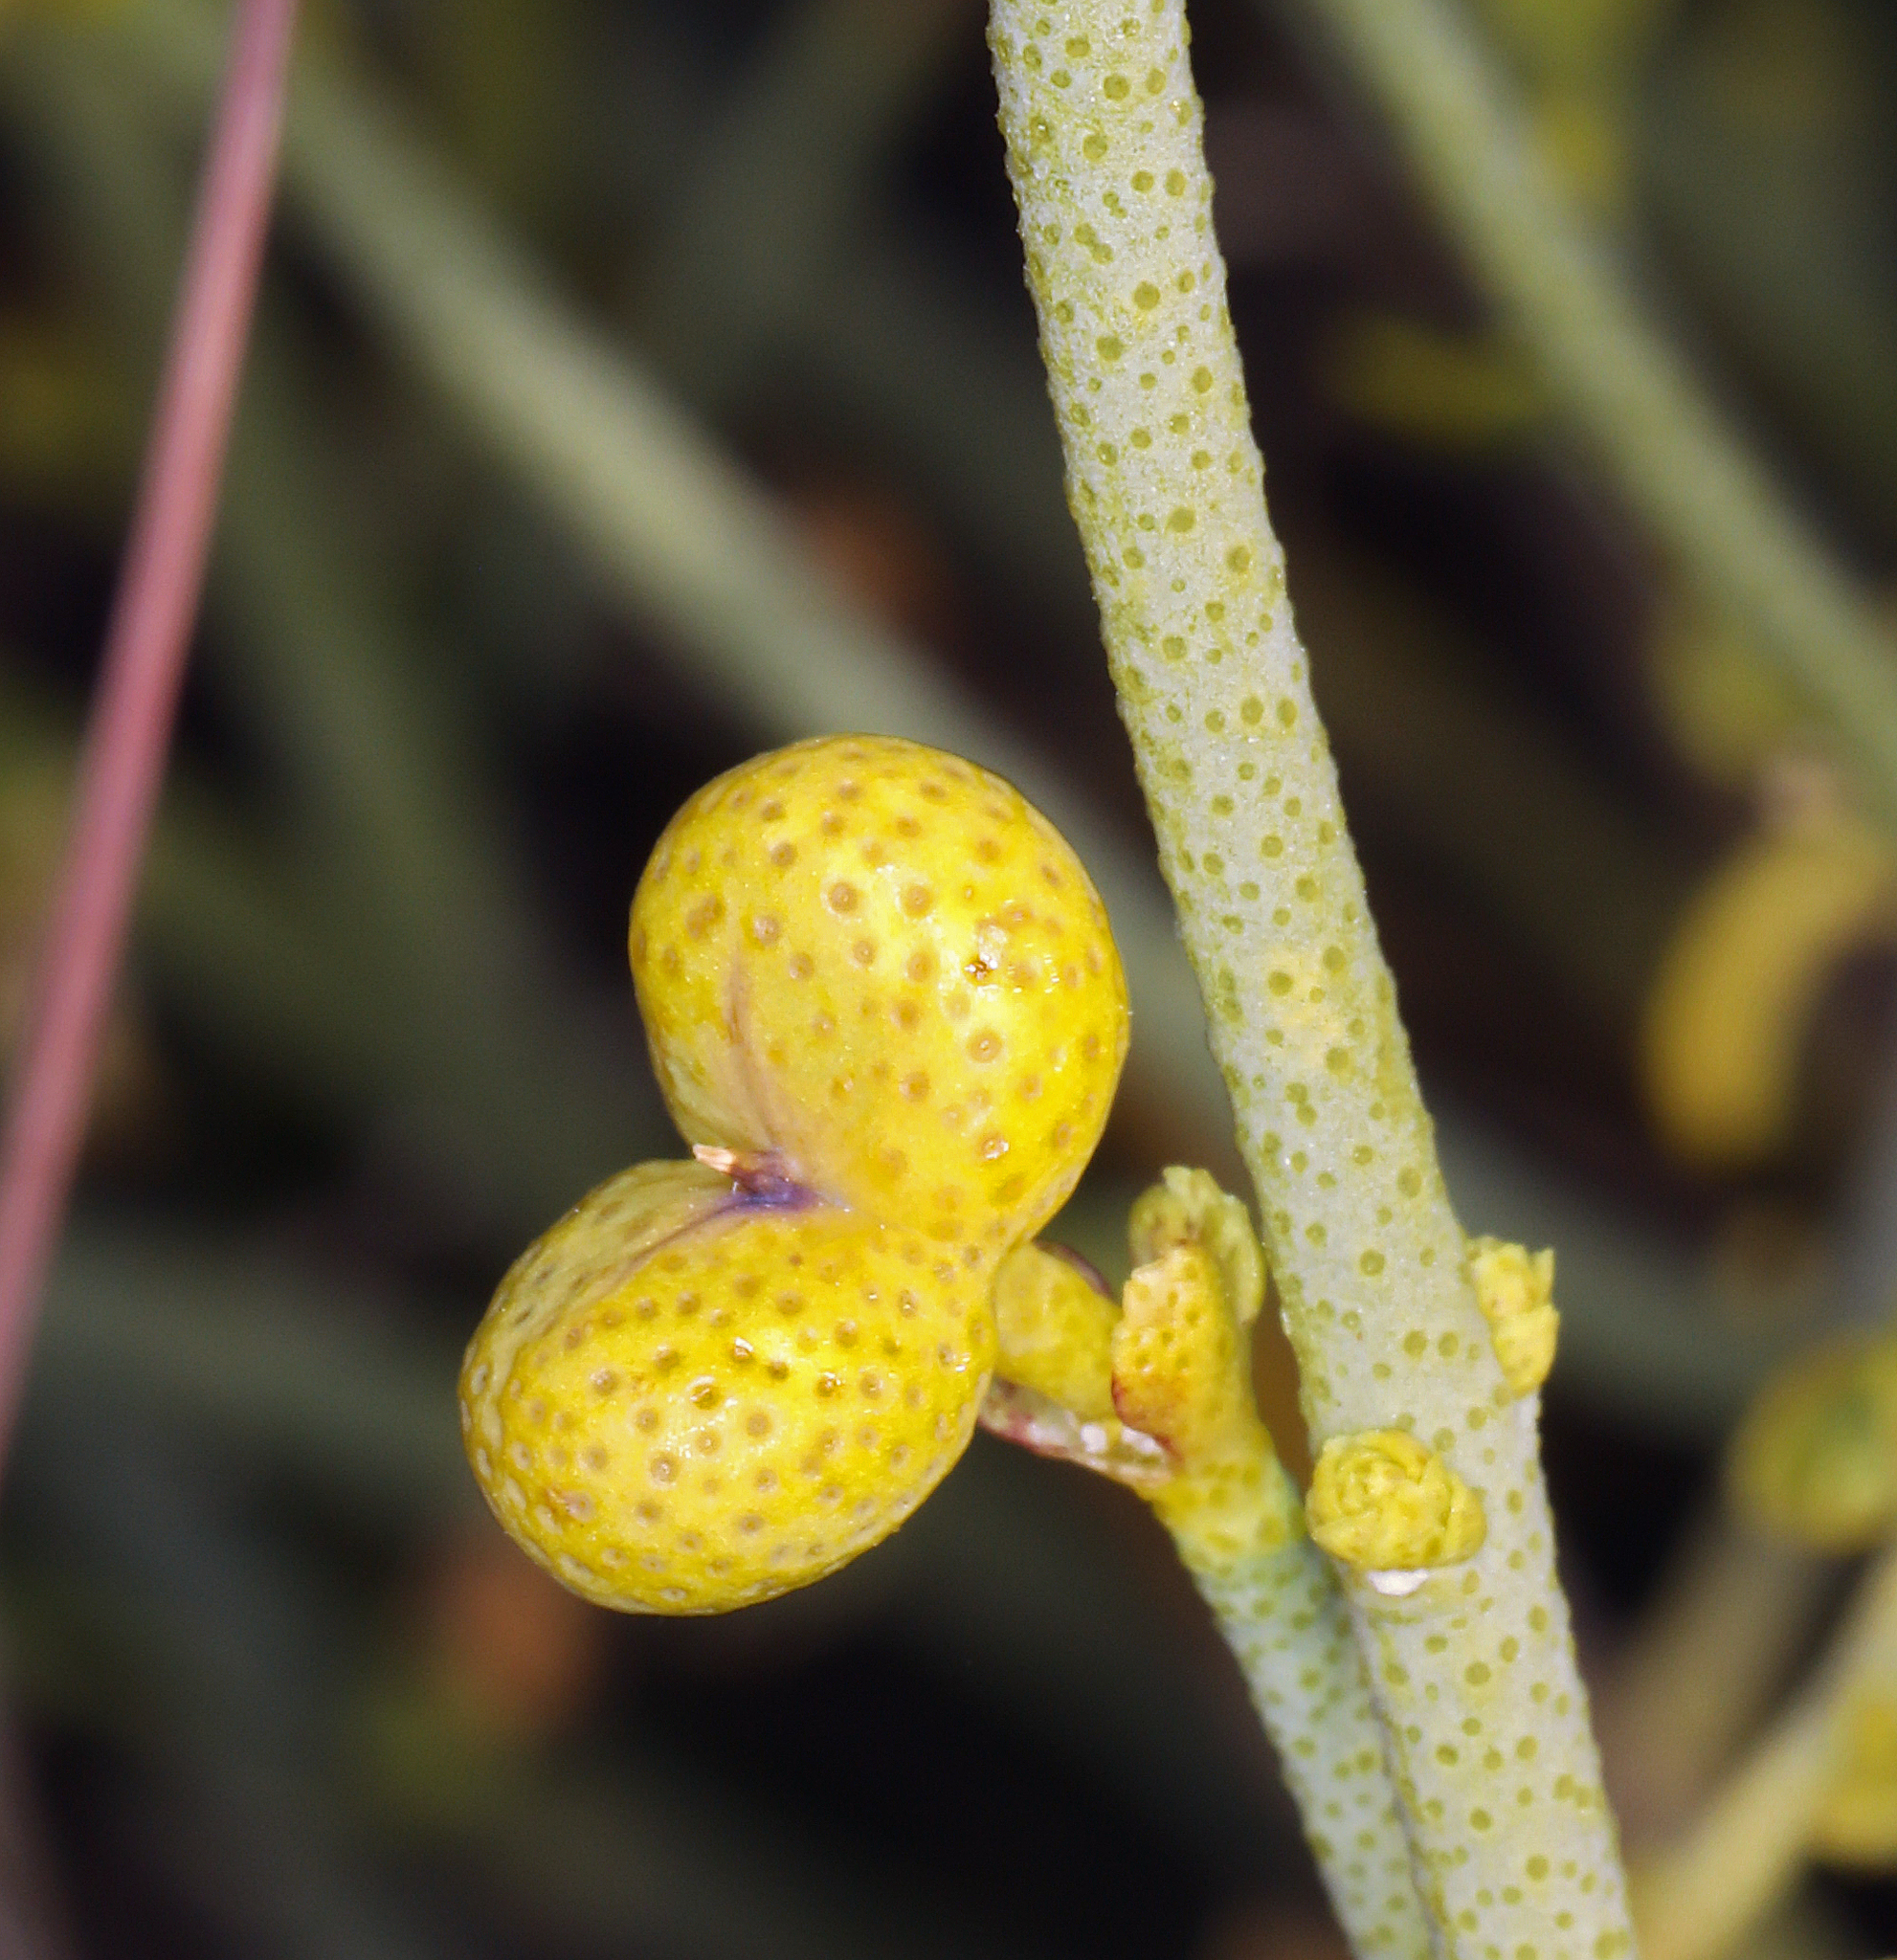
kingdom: Plantae
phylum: Tracheophyta
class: Magnoliopsida
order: Sapindales
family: Rutaceae
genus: Thamnosma
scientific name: Thamnosma montana
